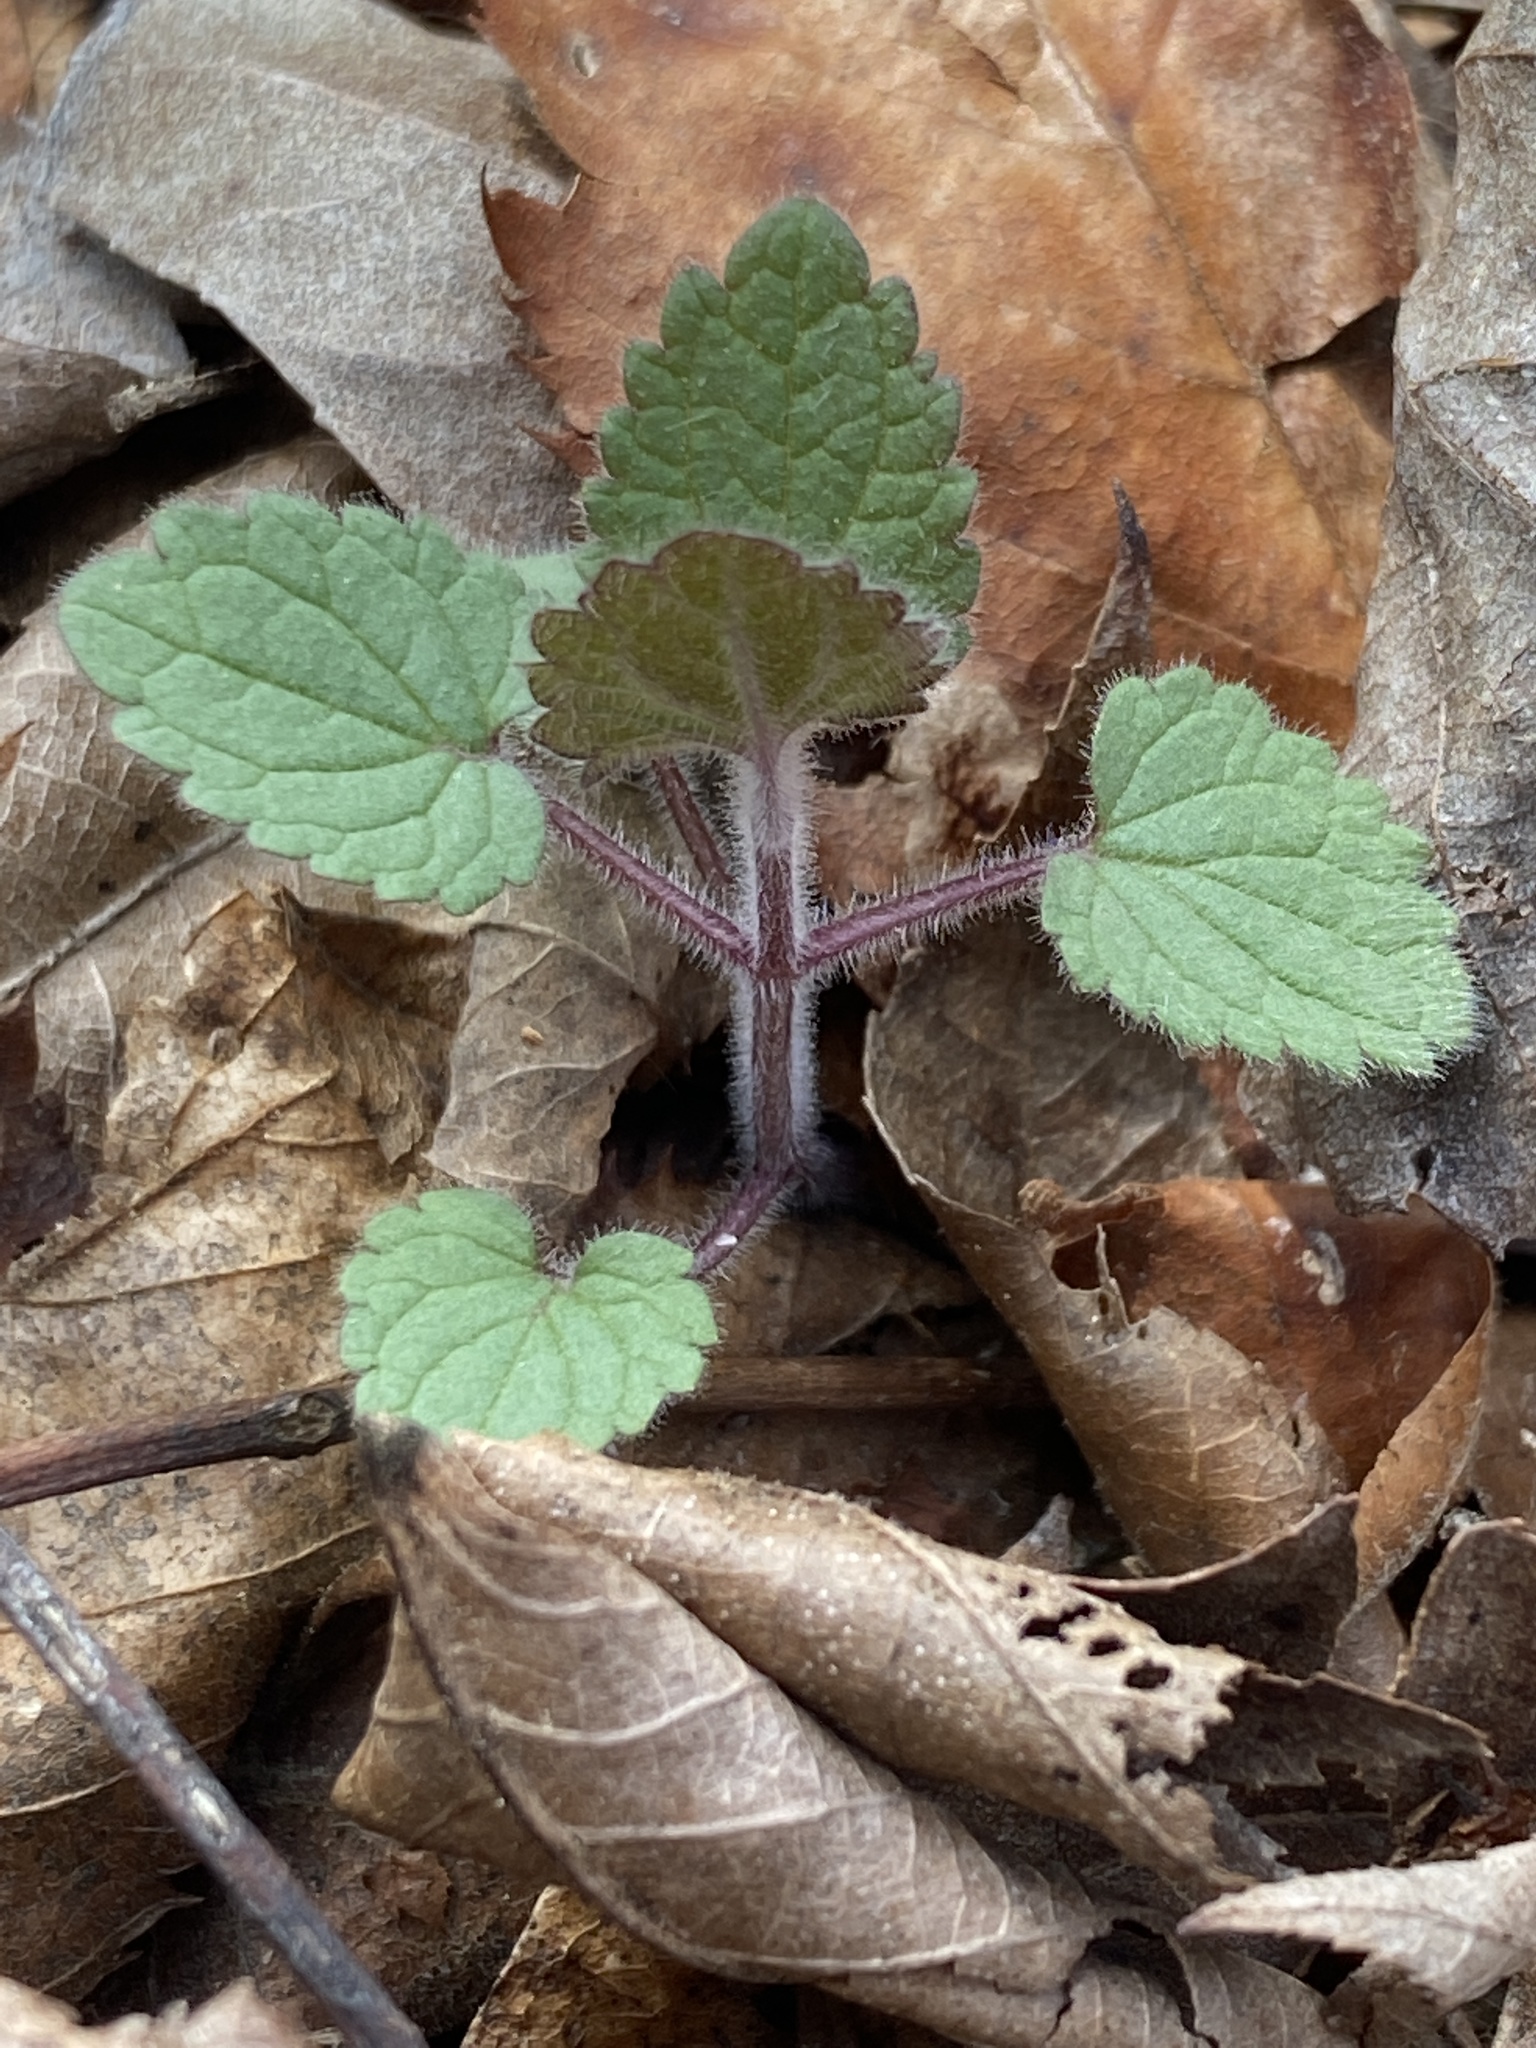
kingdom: Plantae
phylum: Tracheophyta
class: Magnoliopsida
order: Lamiales
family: Lamiaceae
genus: Scutellaria
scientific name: Scutellaria ovata
